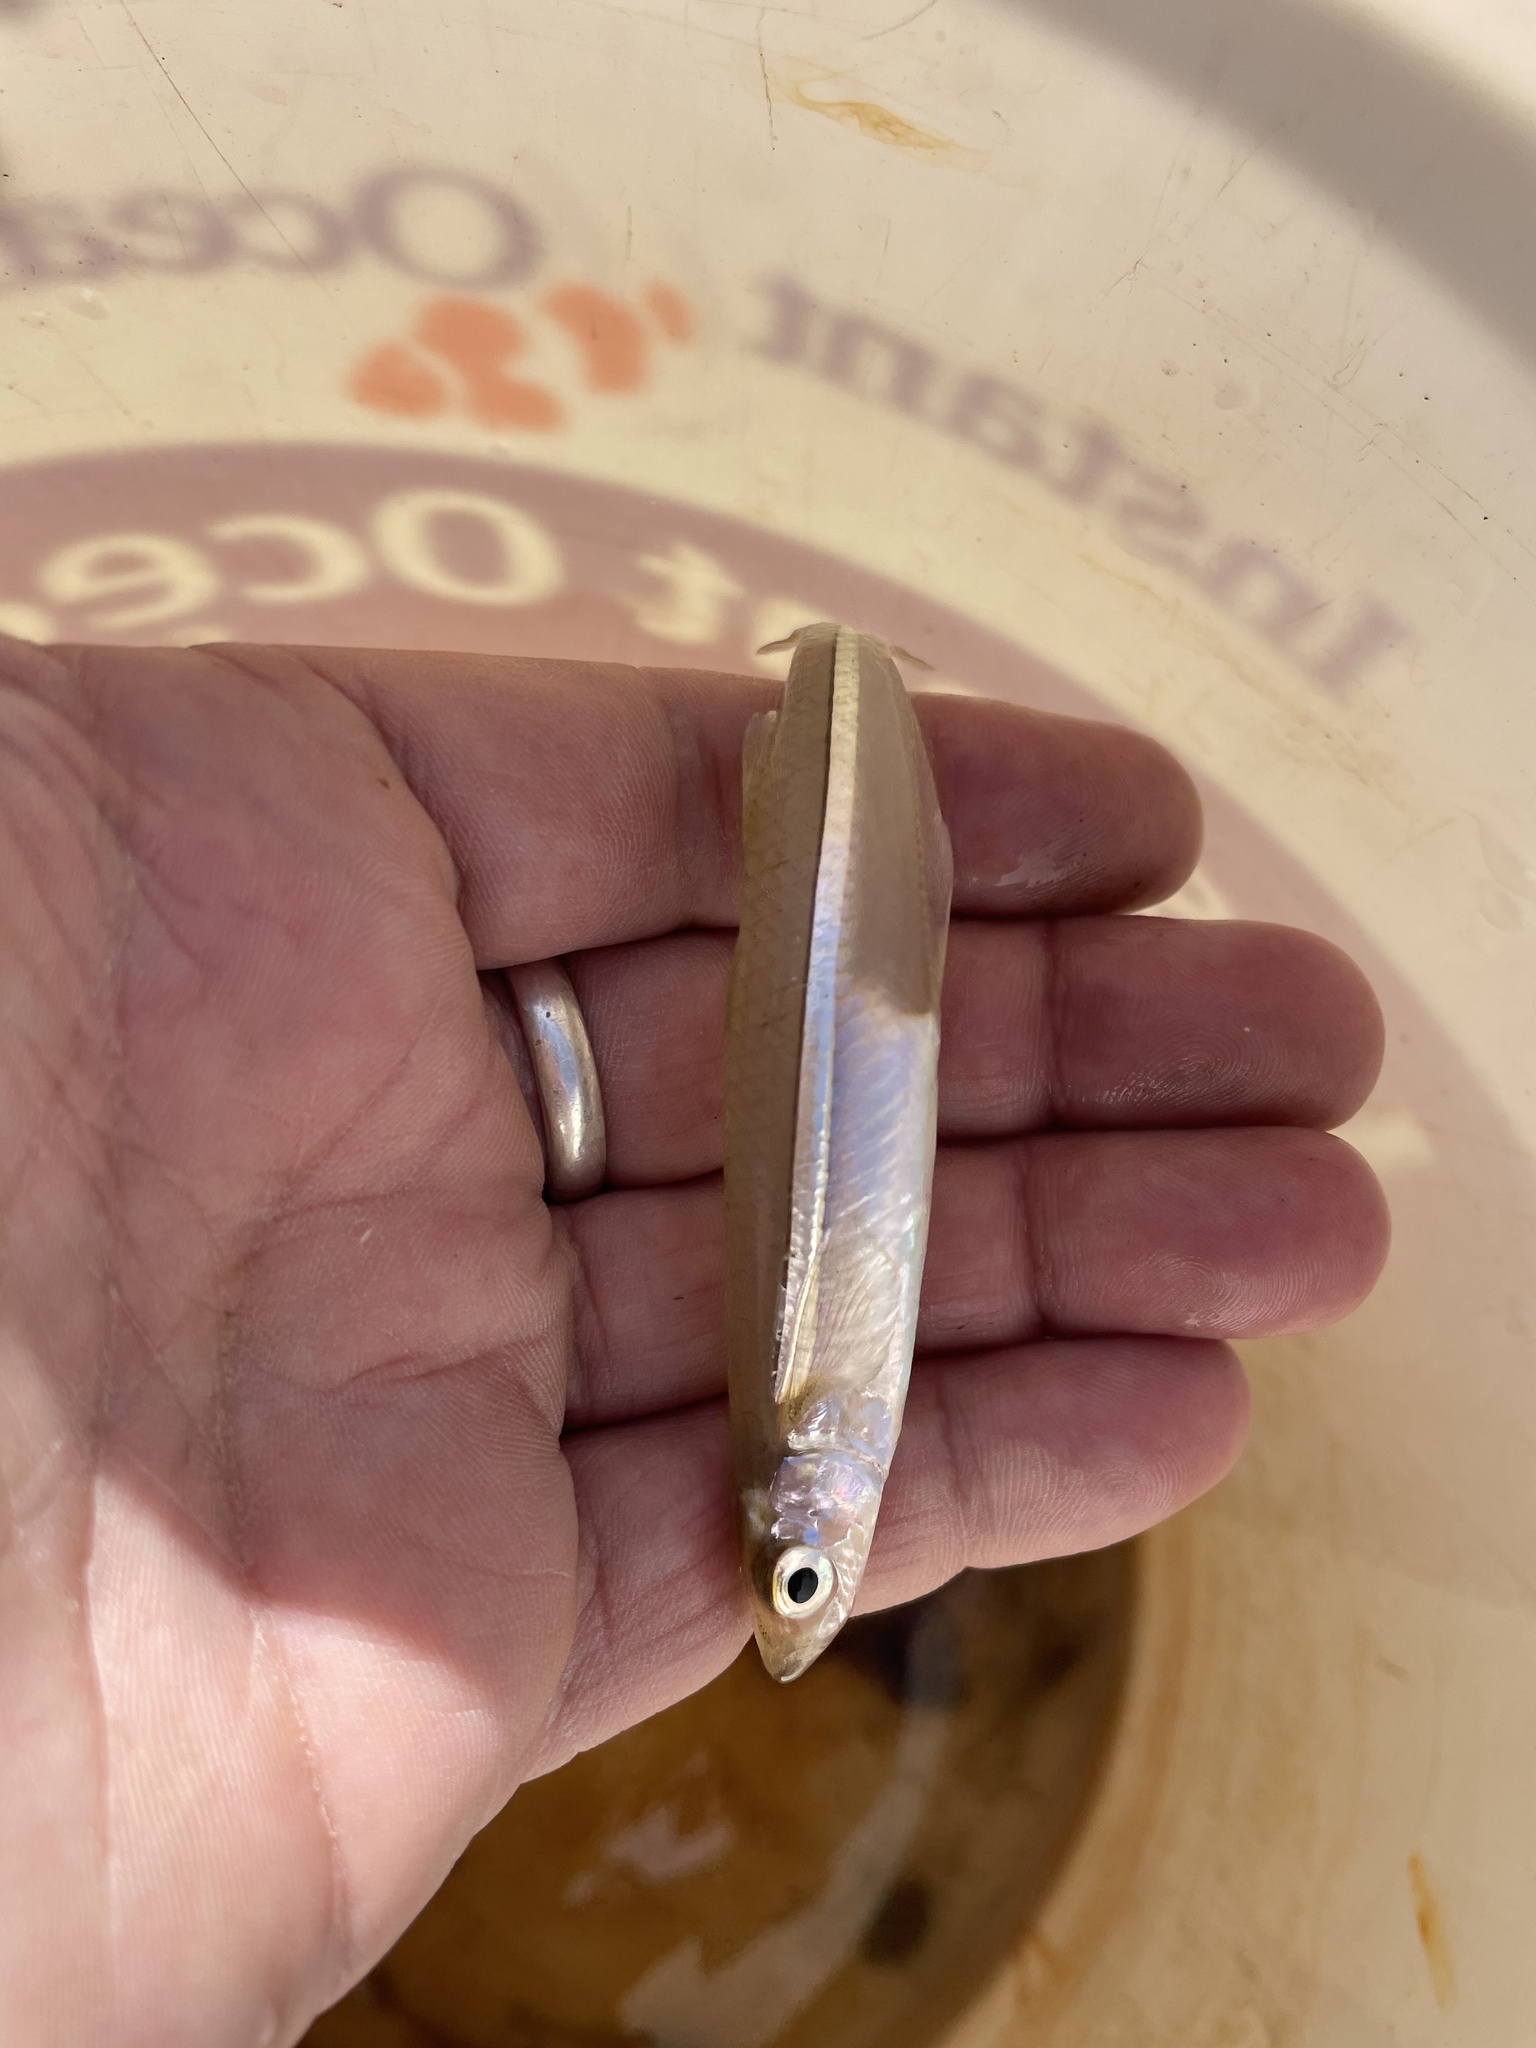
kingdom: Animalia
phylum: Chordata
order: Atheriniformes
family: Atherinopsidae
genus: Menidia
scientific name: Menidia menidia
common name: Atlantic silverside
